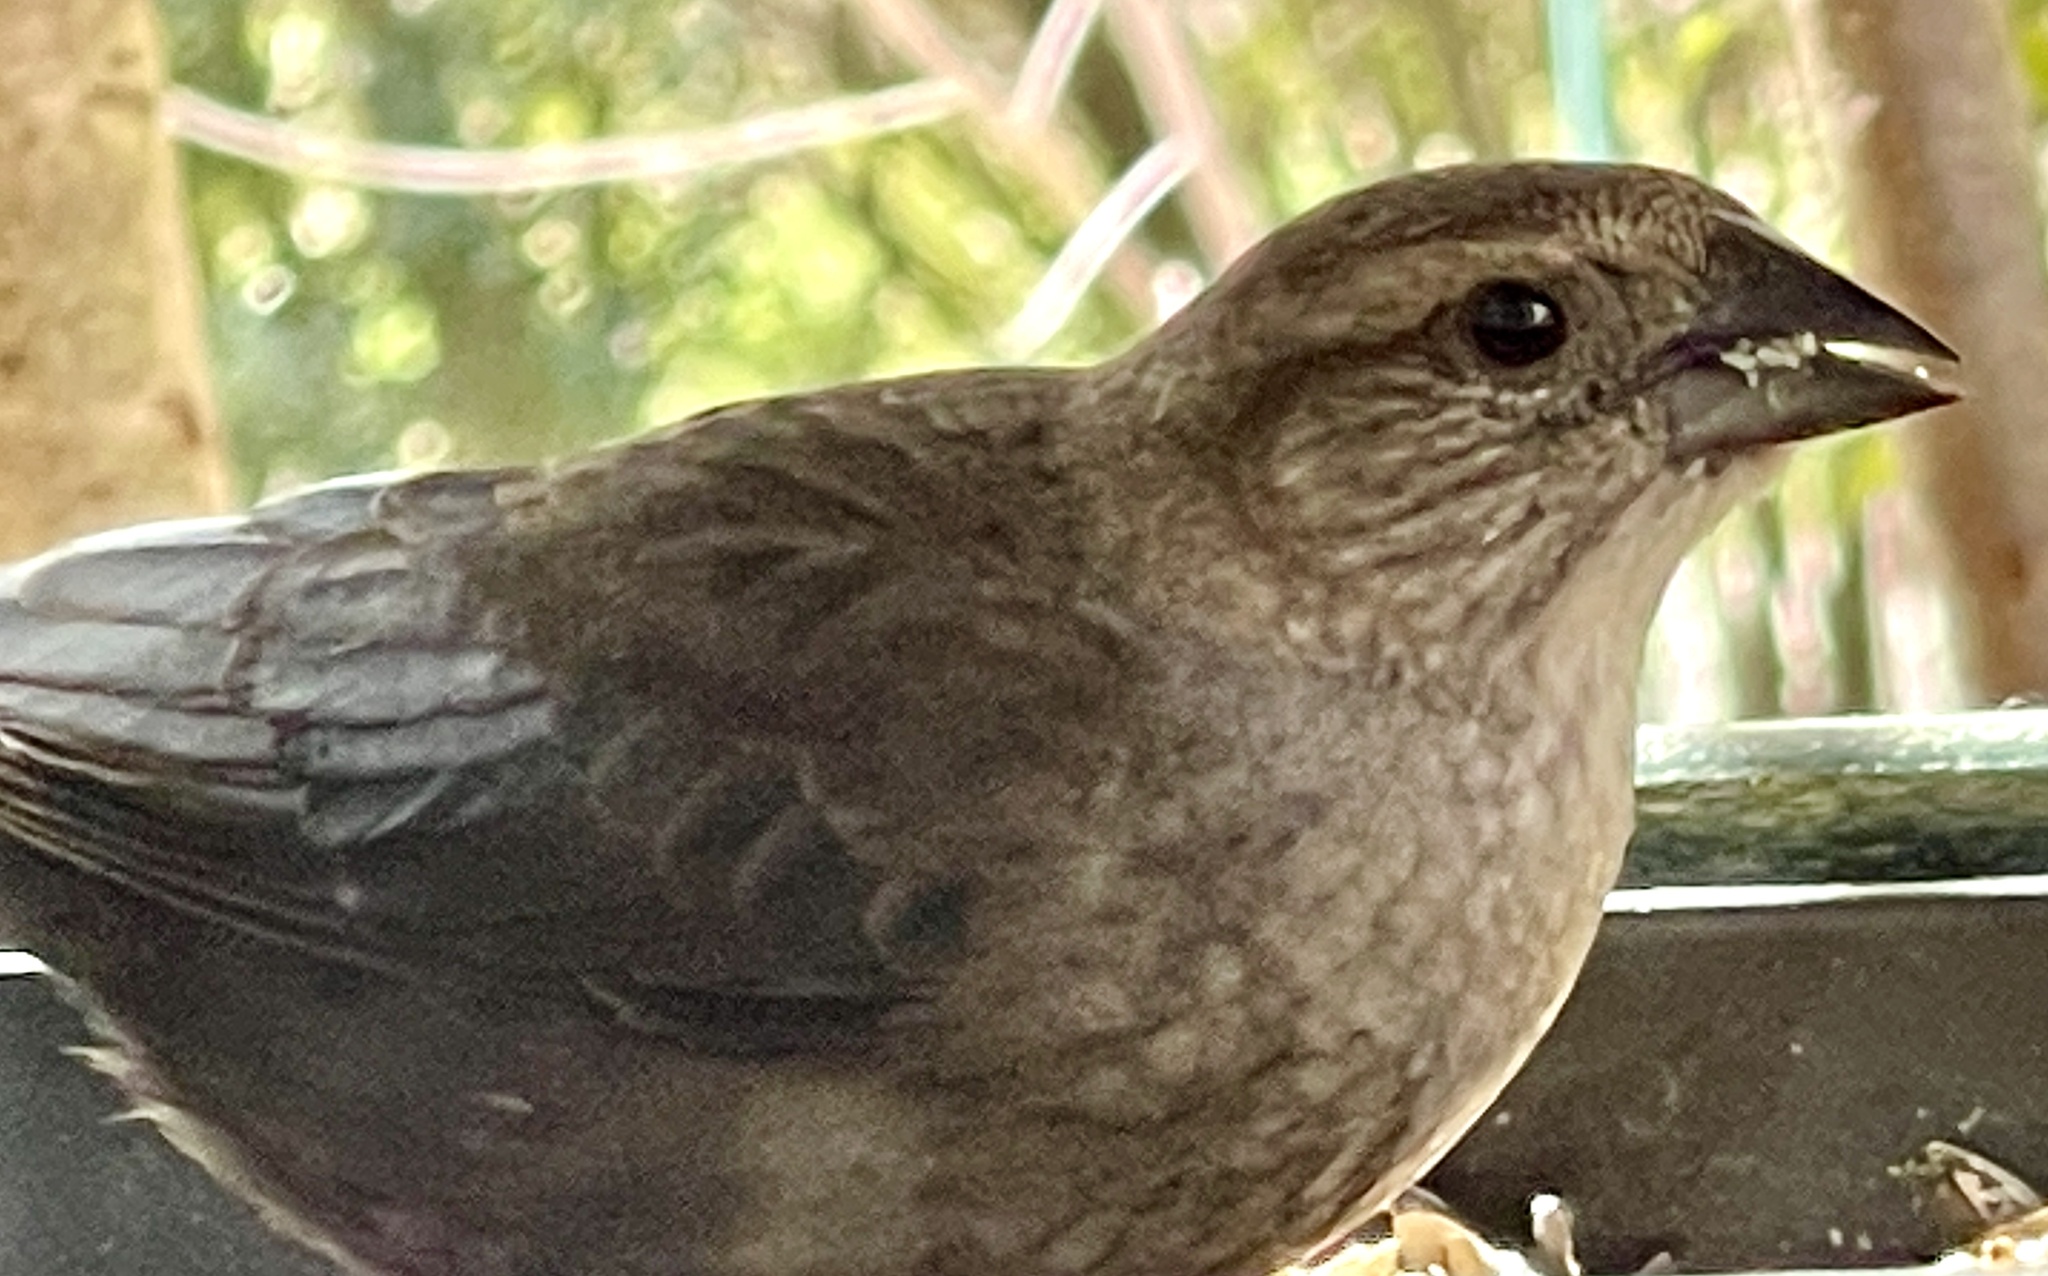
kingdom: Animalia
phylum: Chordata
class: Aves
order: Passeriformes
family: Icteridae
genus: Molothrus
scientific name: Molothrus ater
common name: Brown-headed cowbird
